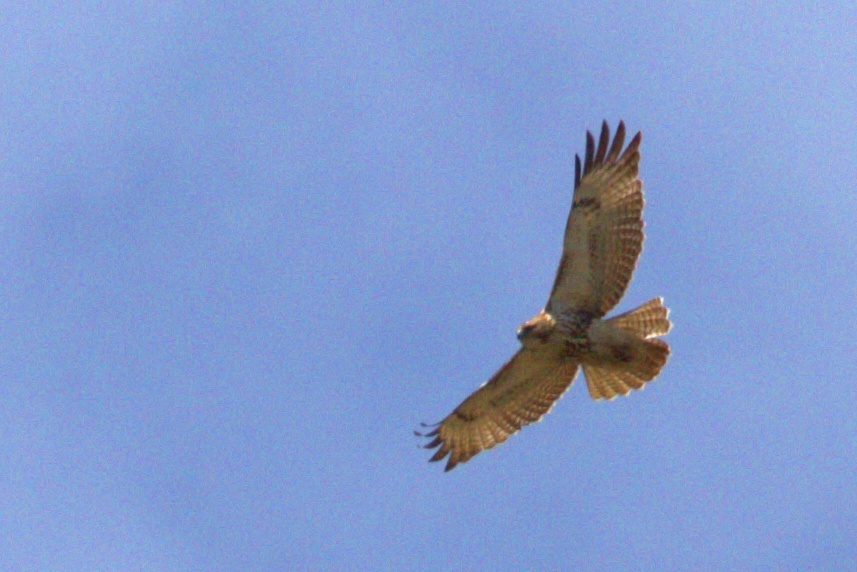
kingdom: Animalia
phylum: Chordata
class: Aves
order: Accipitriformes
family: Accipitridae
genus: Buteo
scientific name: Buteo jamaicensis
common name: Red-tailed hawk
